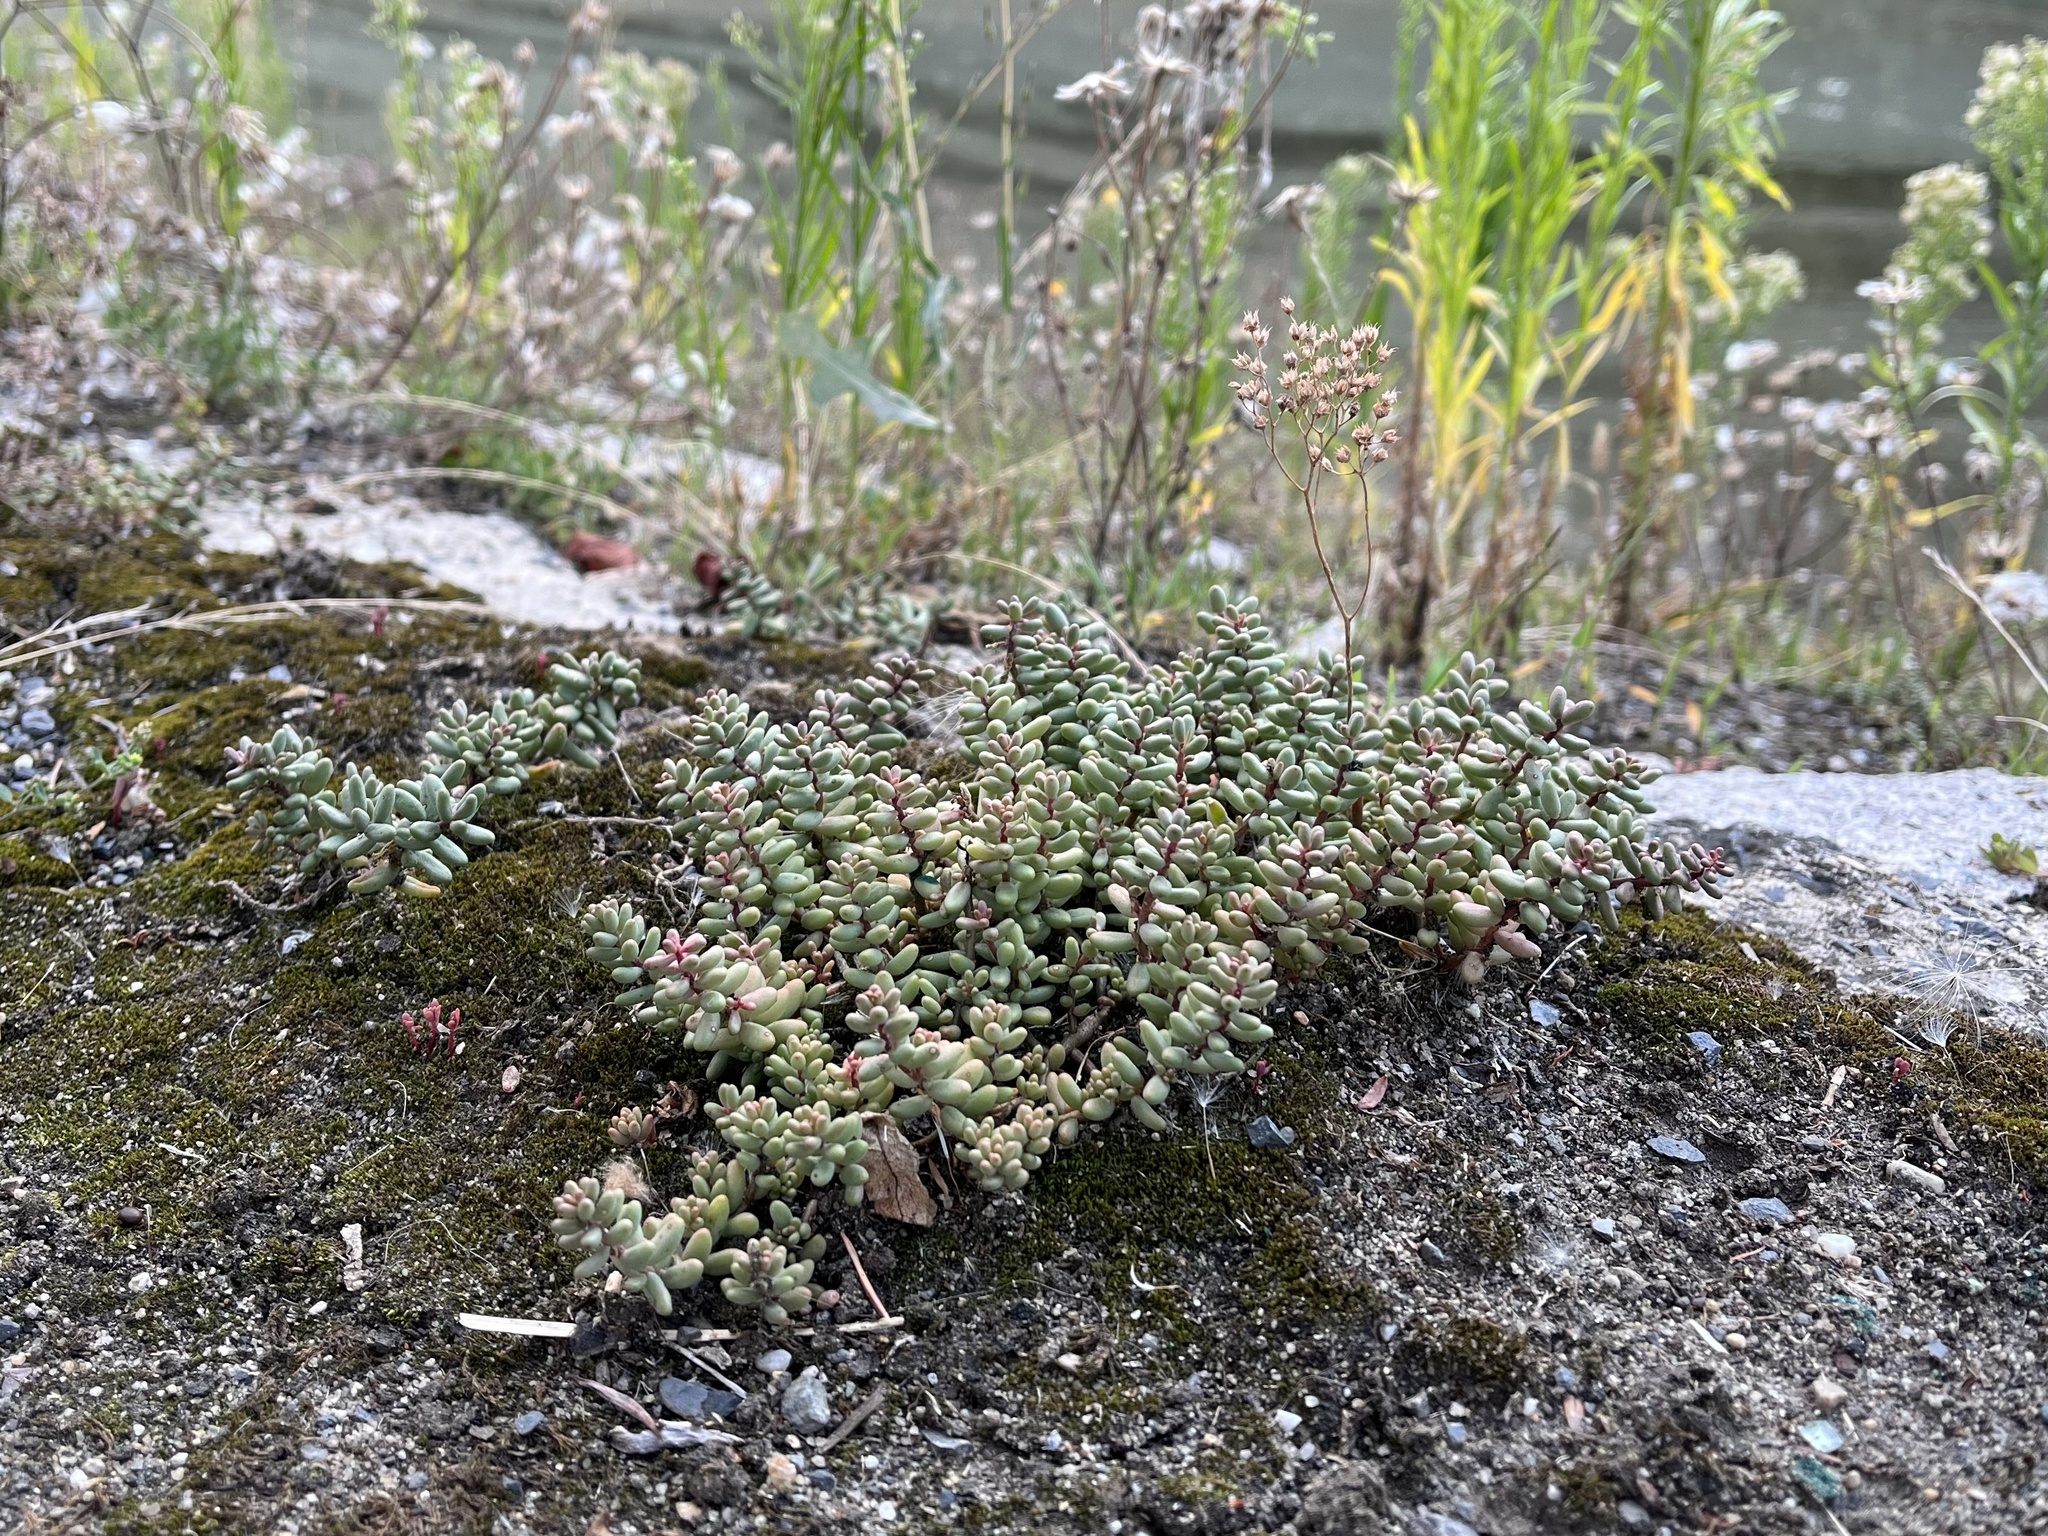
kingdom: Plantae
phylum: Tracheophyta
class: Magnoliopsida
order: Saxifragales
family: Crassulaceae
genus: Sedum
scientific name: Sedum album
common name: White stonecrop
